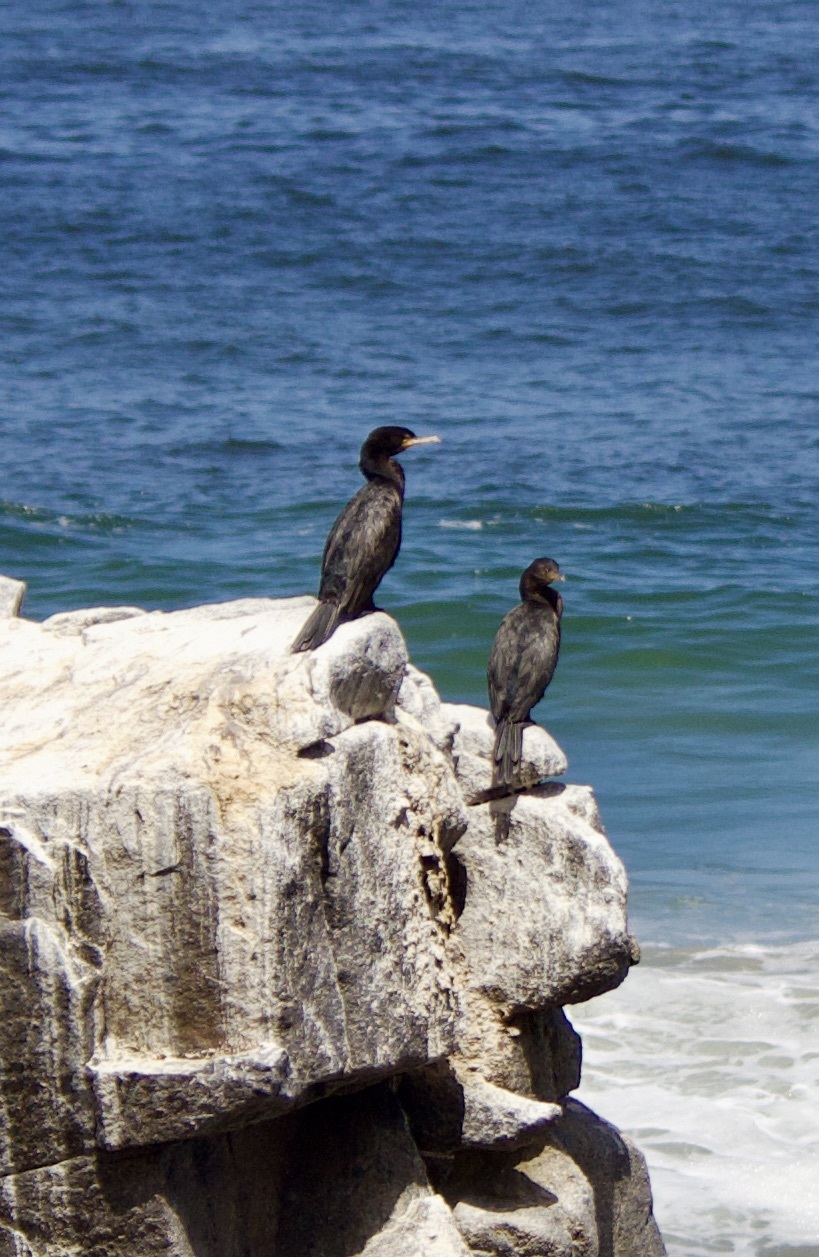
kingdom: Animalia
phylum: Chordata
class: Aves
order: Suliformes
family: Phalacrocoracidae
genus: Phalacrocorax
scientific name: Phalacrocorax brasilianus
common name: Neotropic cormorant
